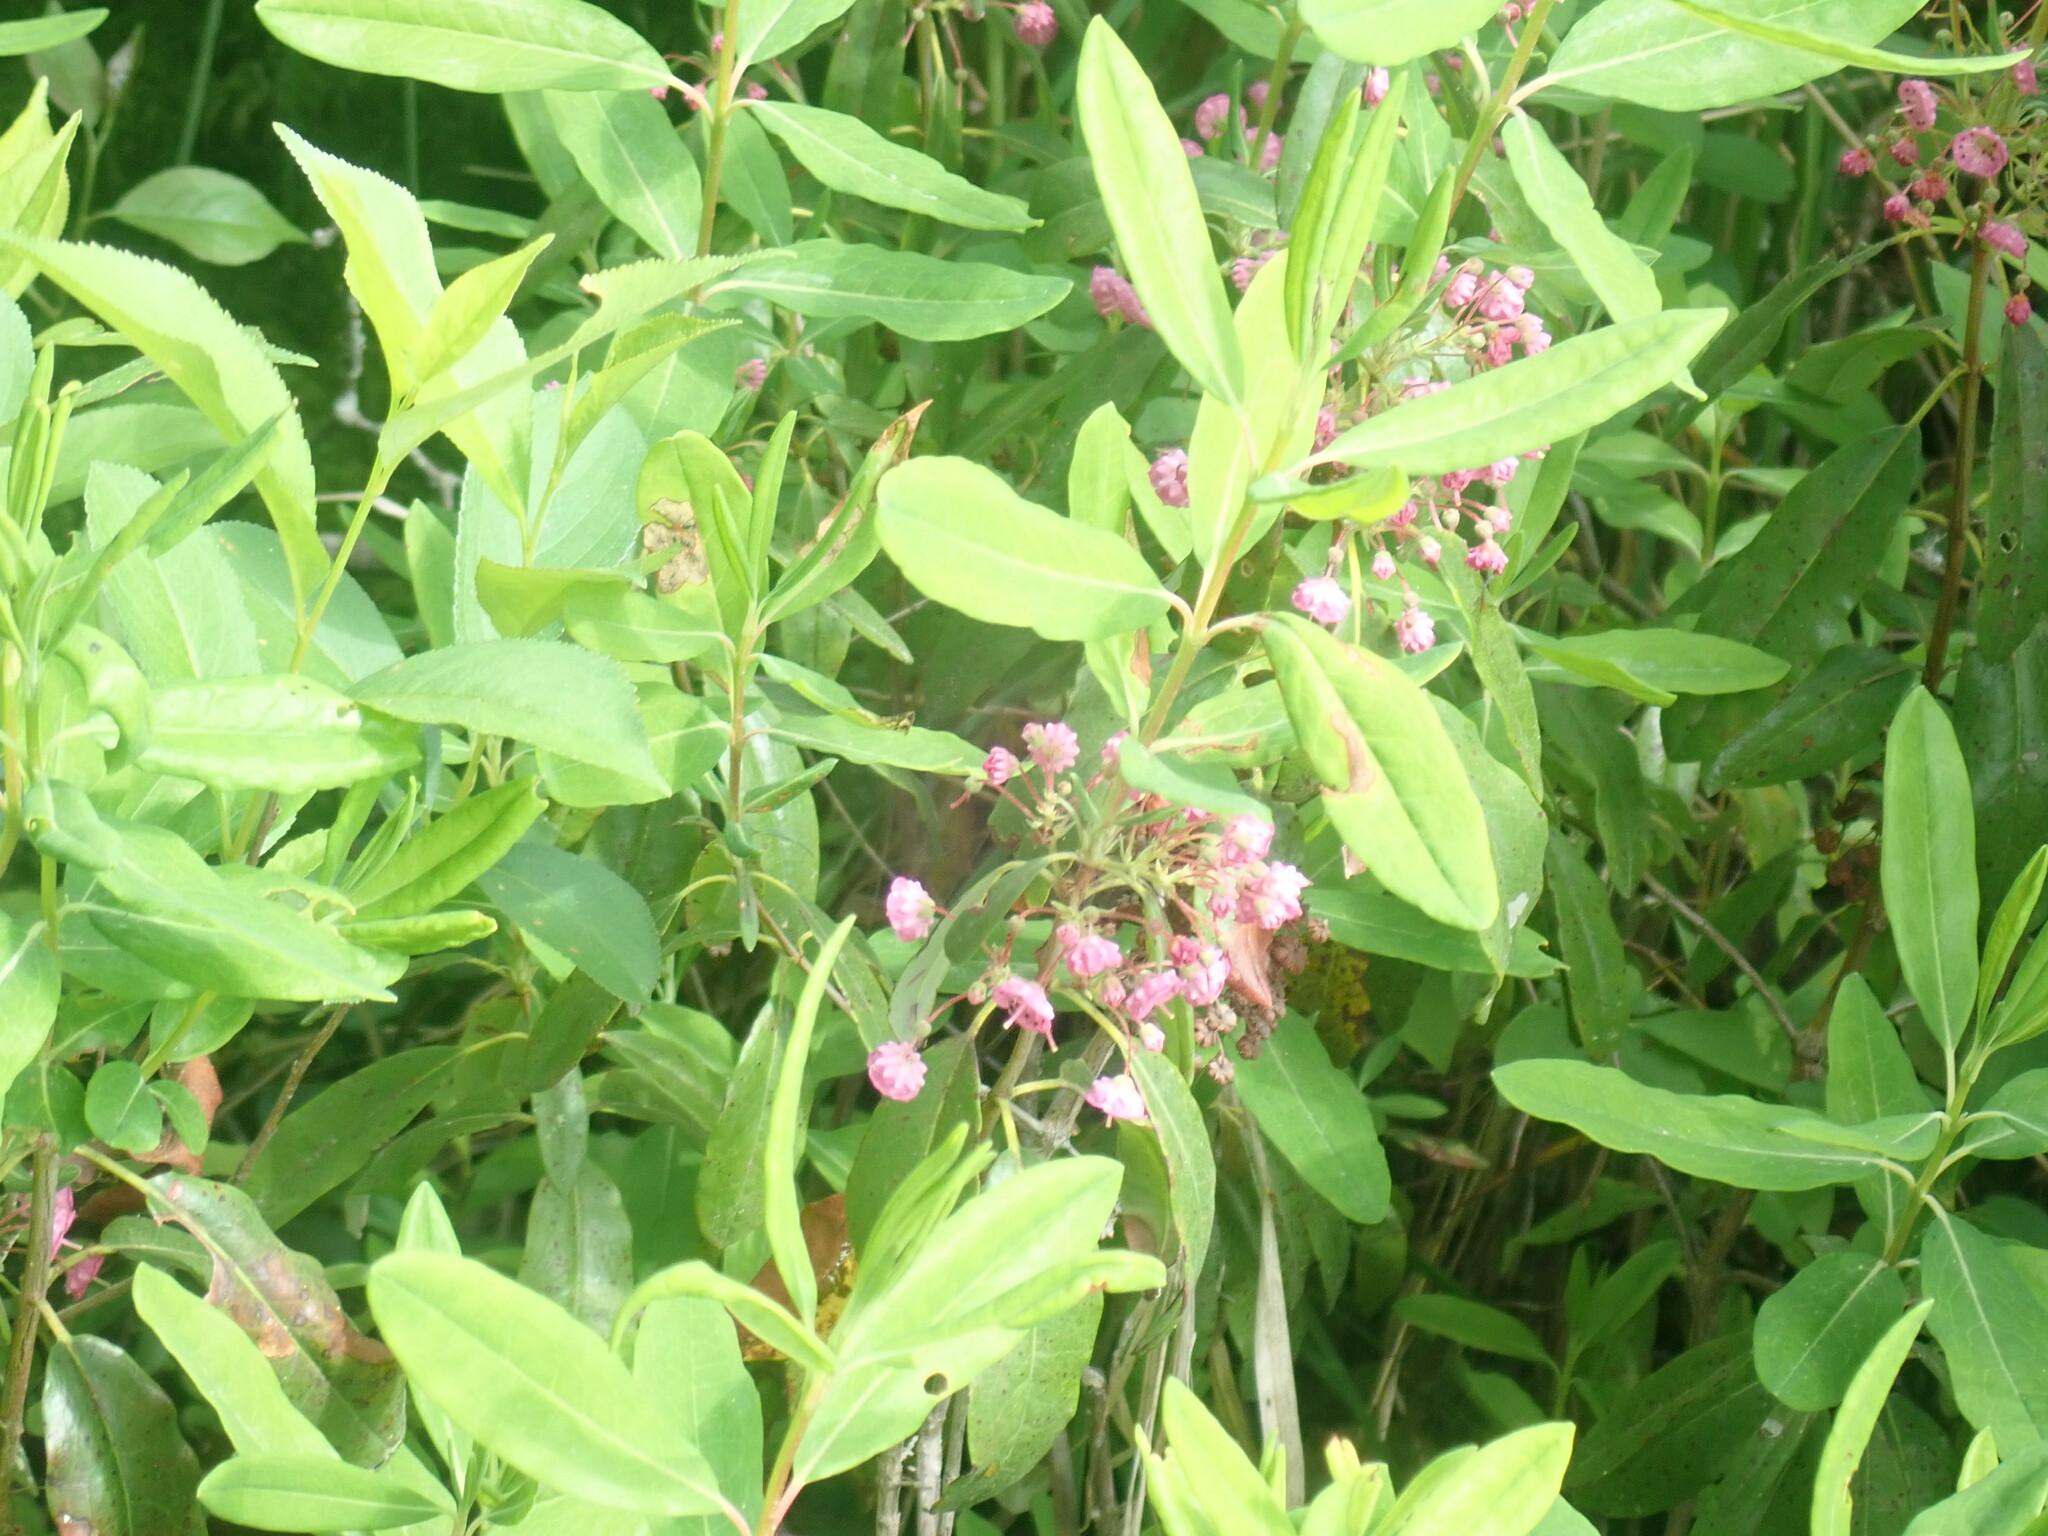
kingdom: Plantae
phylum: Tracheophyta
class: Magnoliopsida
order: Ericales
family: Ericaceae
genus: Kalmia
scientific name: Kalmia angustifolia
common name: Sheep-laurel
